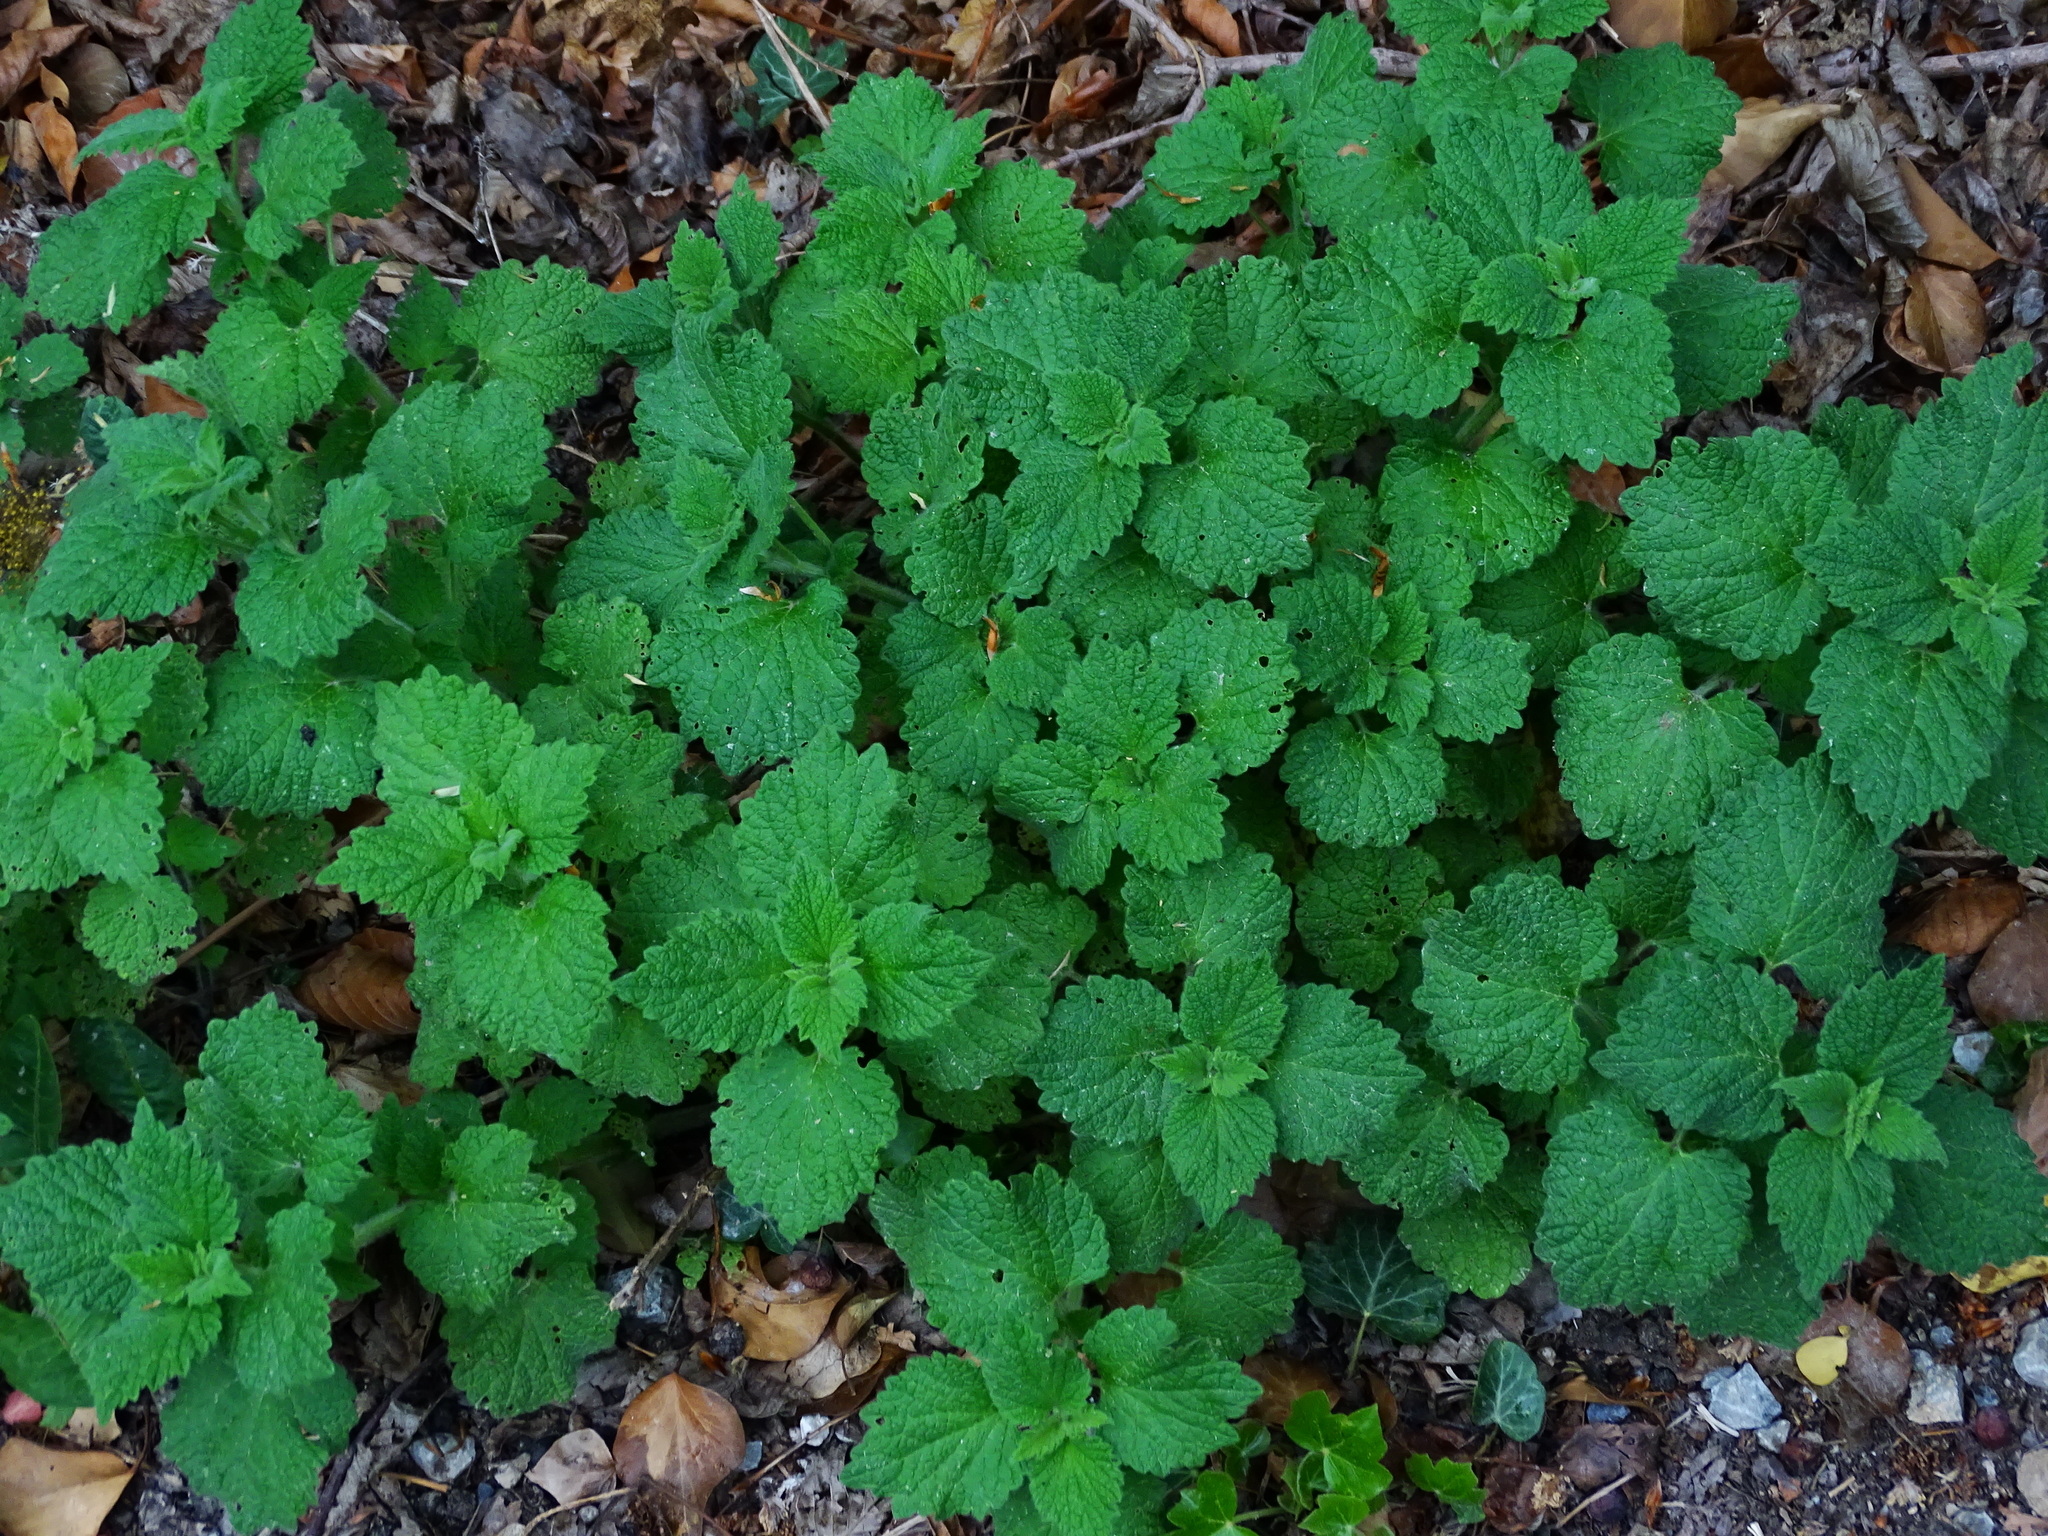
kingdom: Plantae
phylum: Tracheophyta
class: Magnoliopsida
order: Lamiales
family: Lamiaceae
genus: Ballota
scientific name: Ballota nigra
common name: Black horehound
